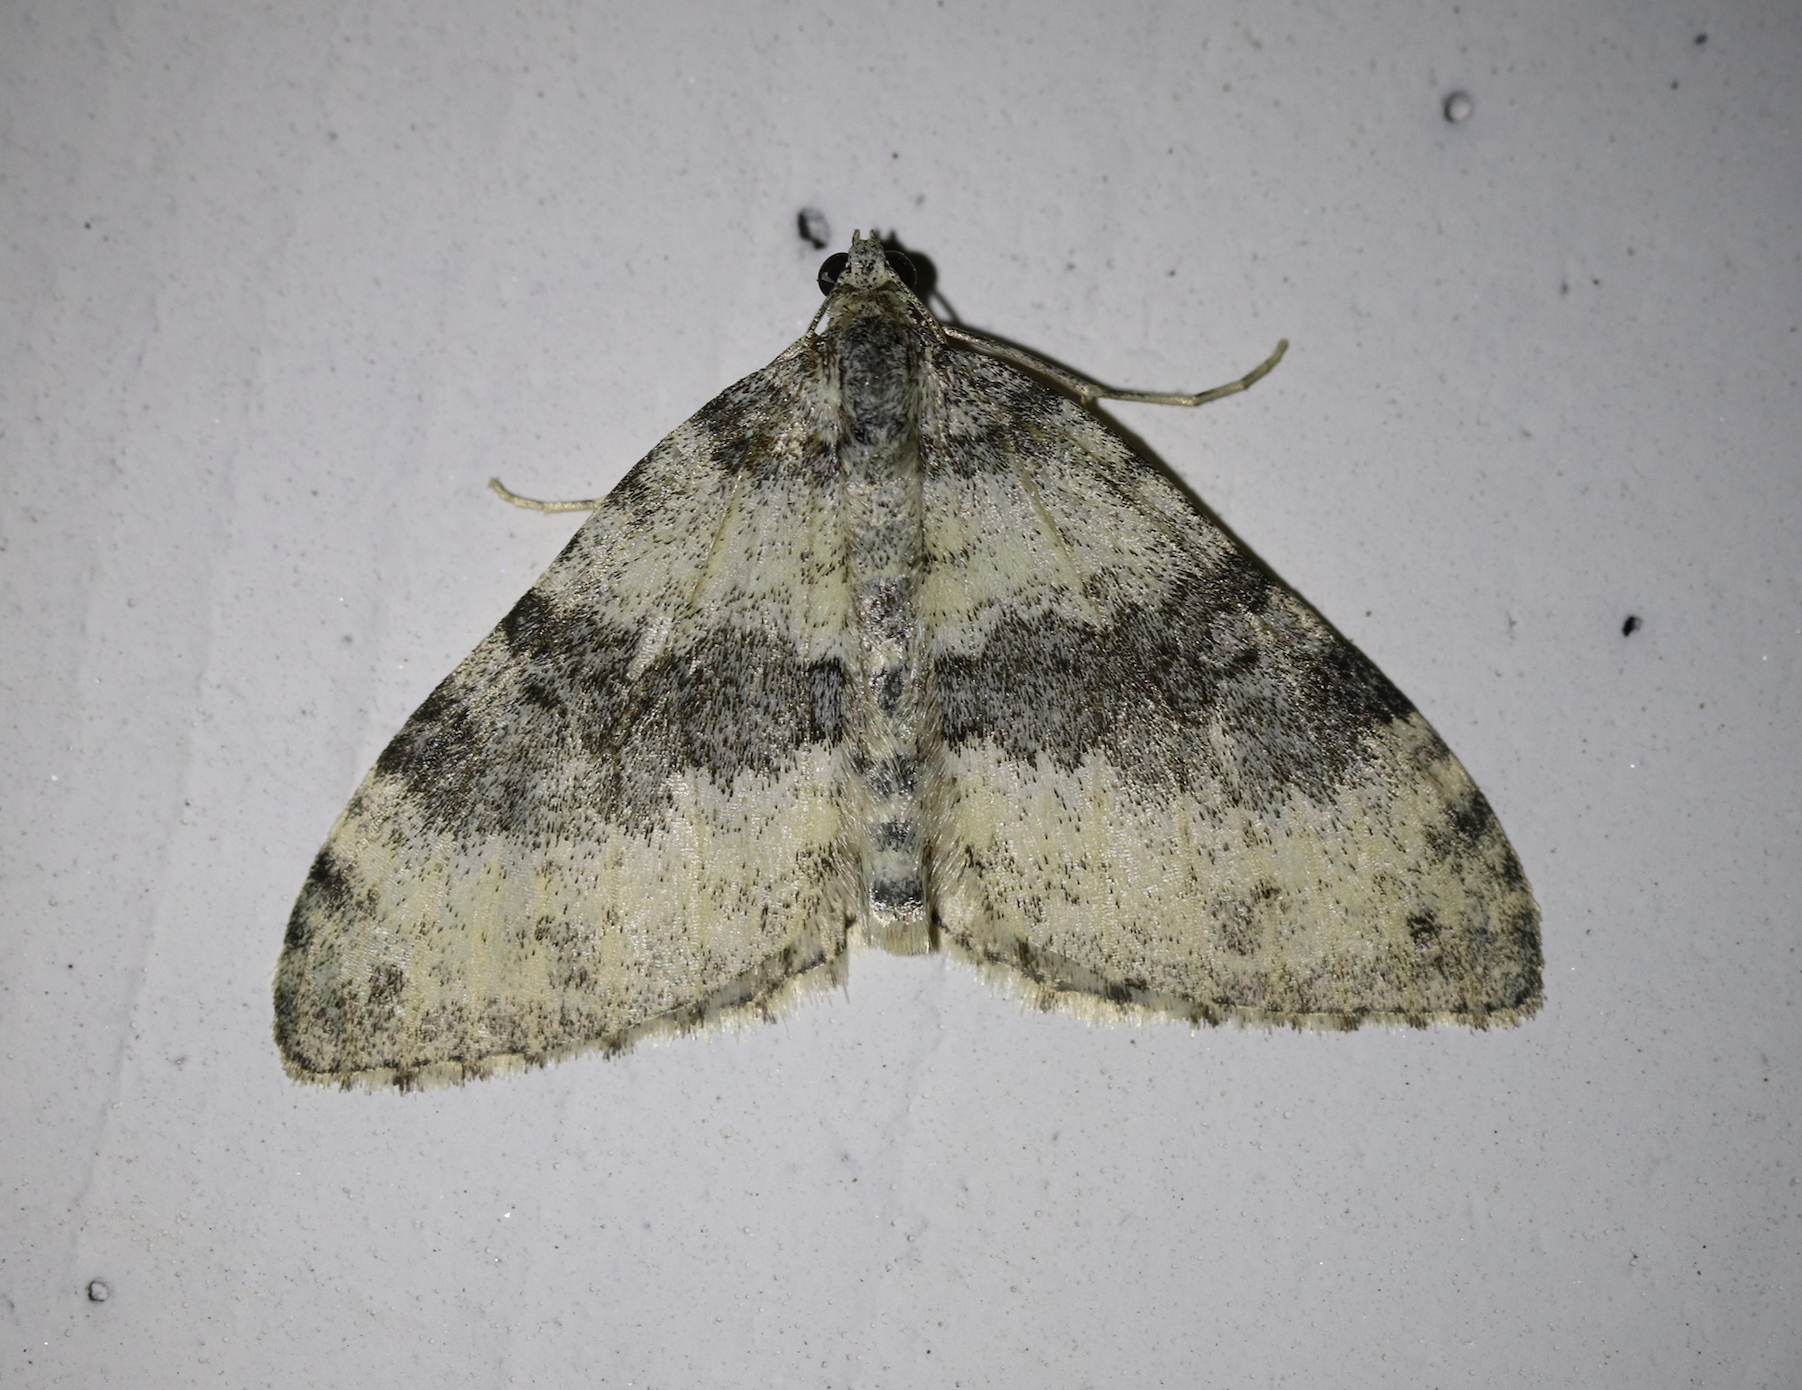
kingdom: Animalia
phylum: Arthropoda
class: Insecta
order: Lepidoptera
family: Geometridae
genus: Entephria
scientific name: Entephria cyanata
